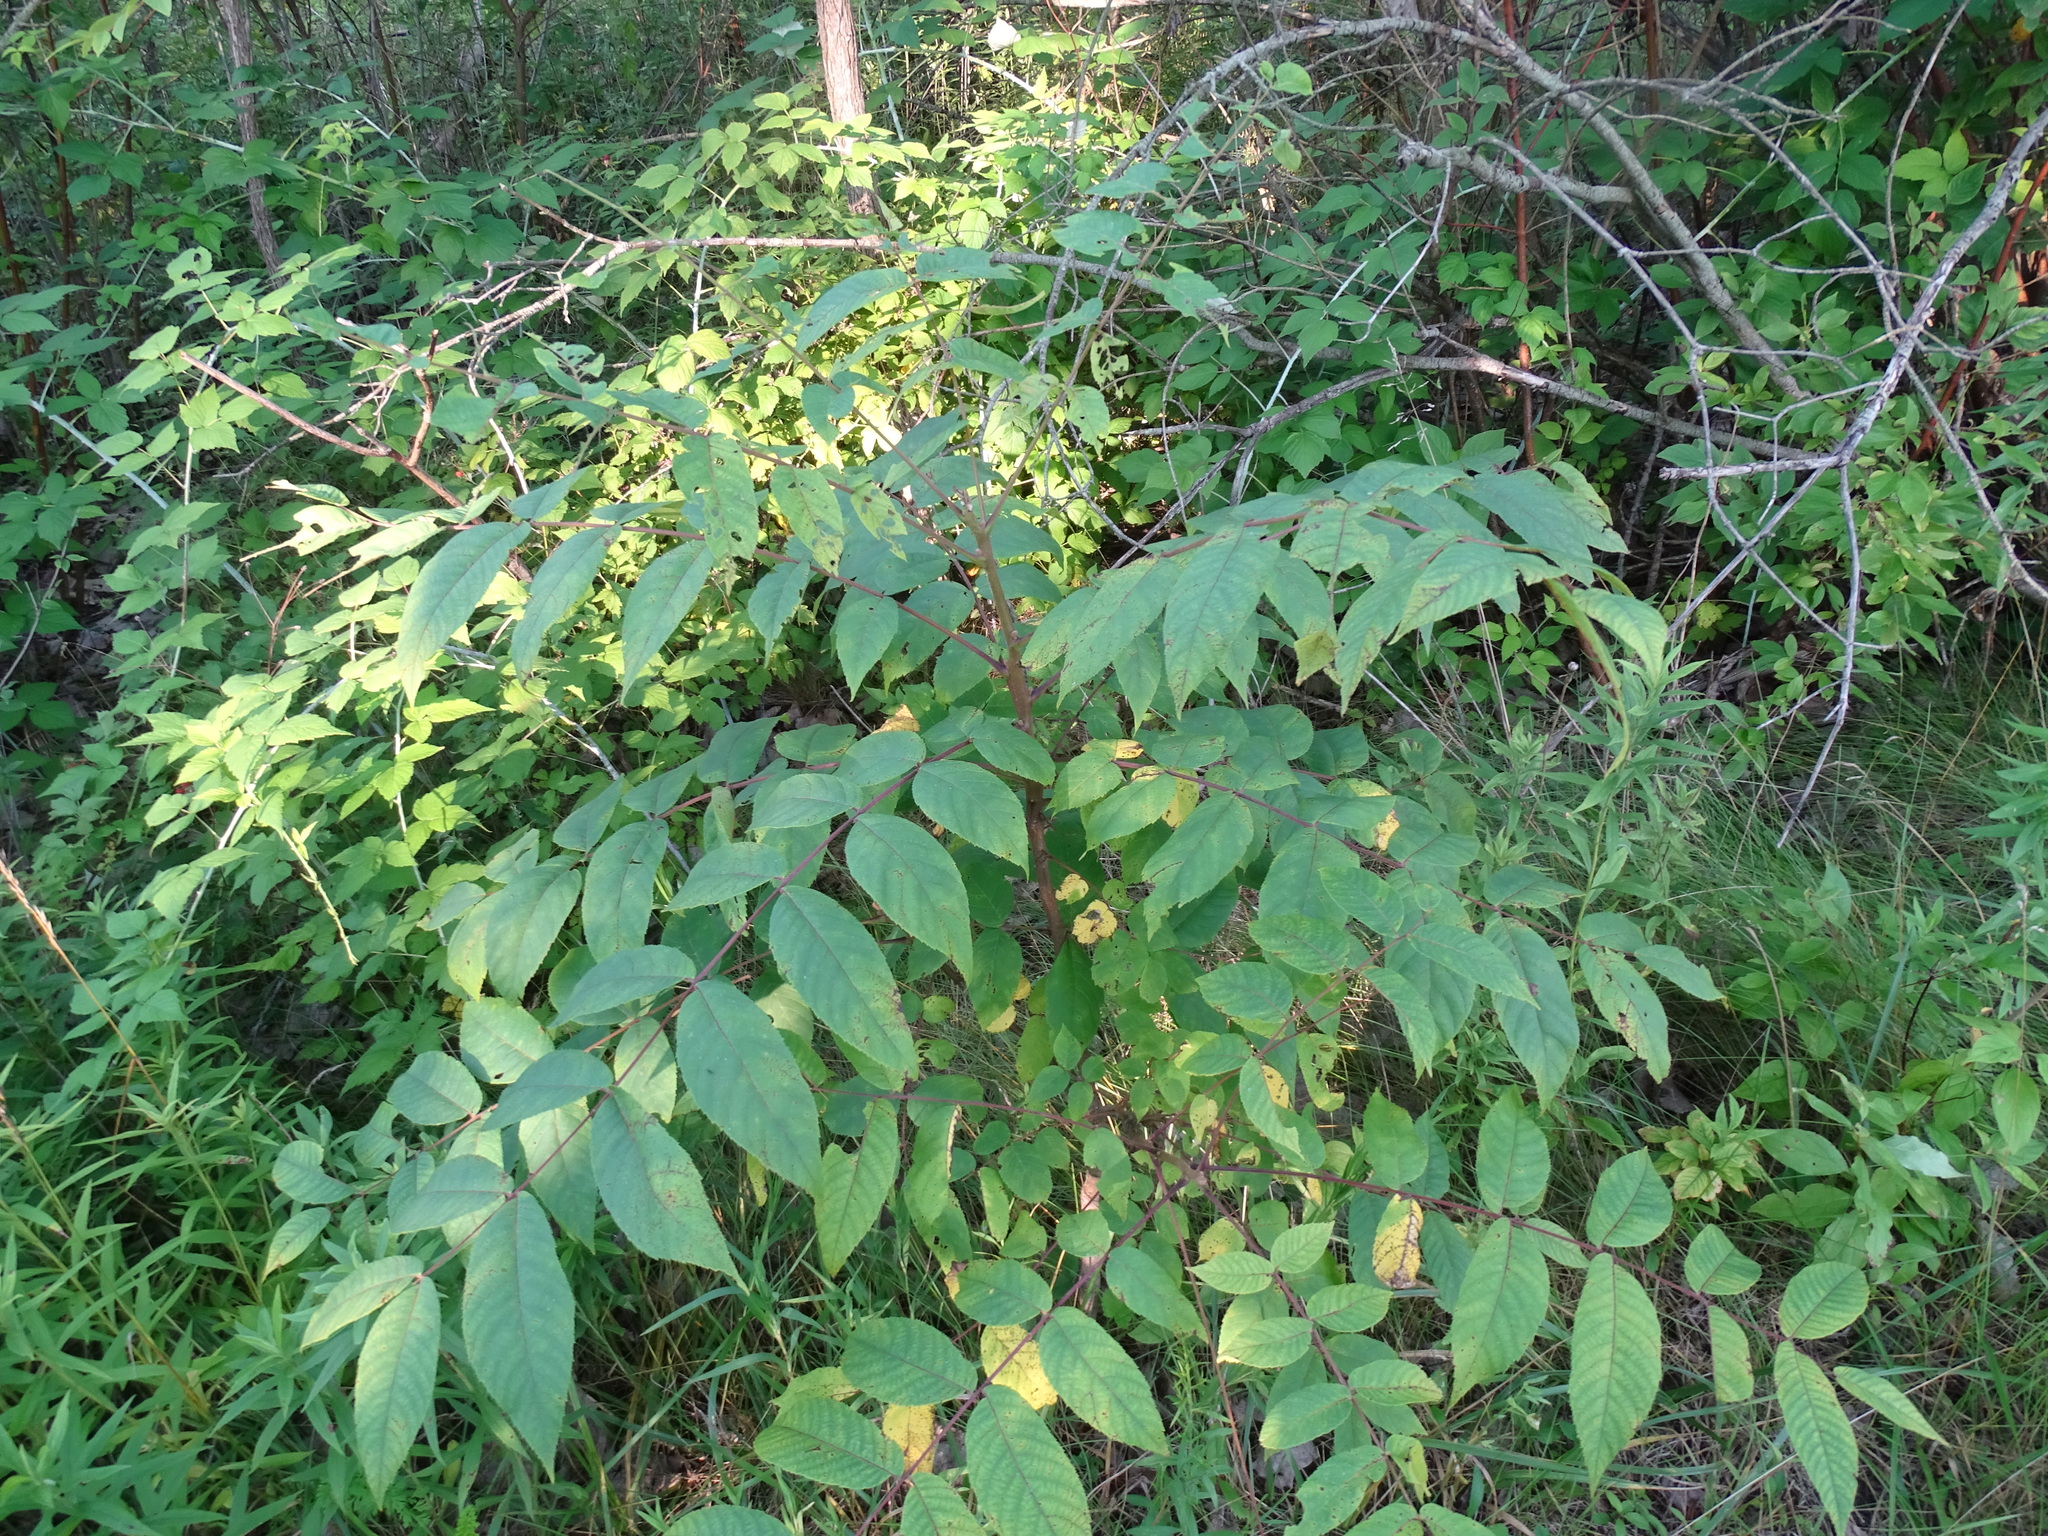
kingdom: Plantae
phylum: Tracheophyta
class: Magnoliopsida
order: Fagales
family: Juglandaceae
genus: Juglans
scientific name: Juglans nigra
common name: Black walnut
